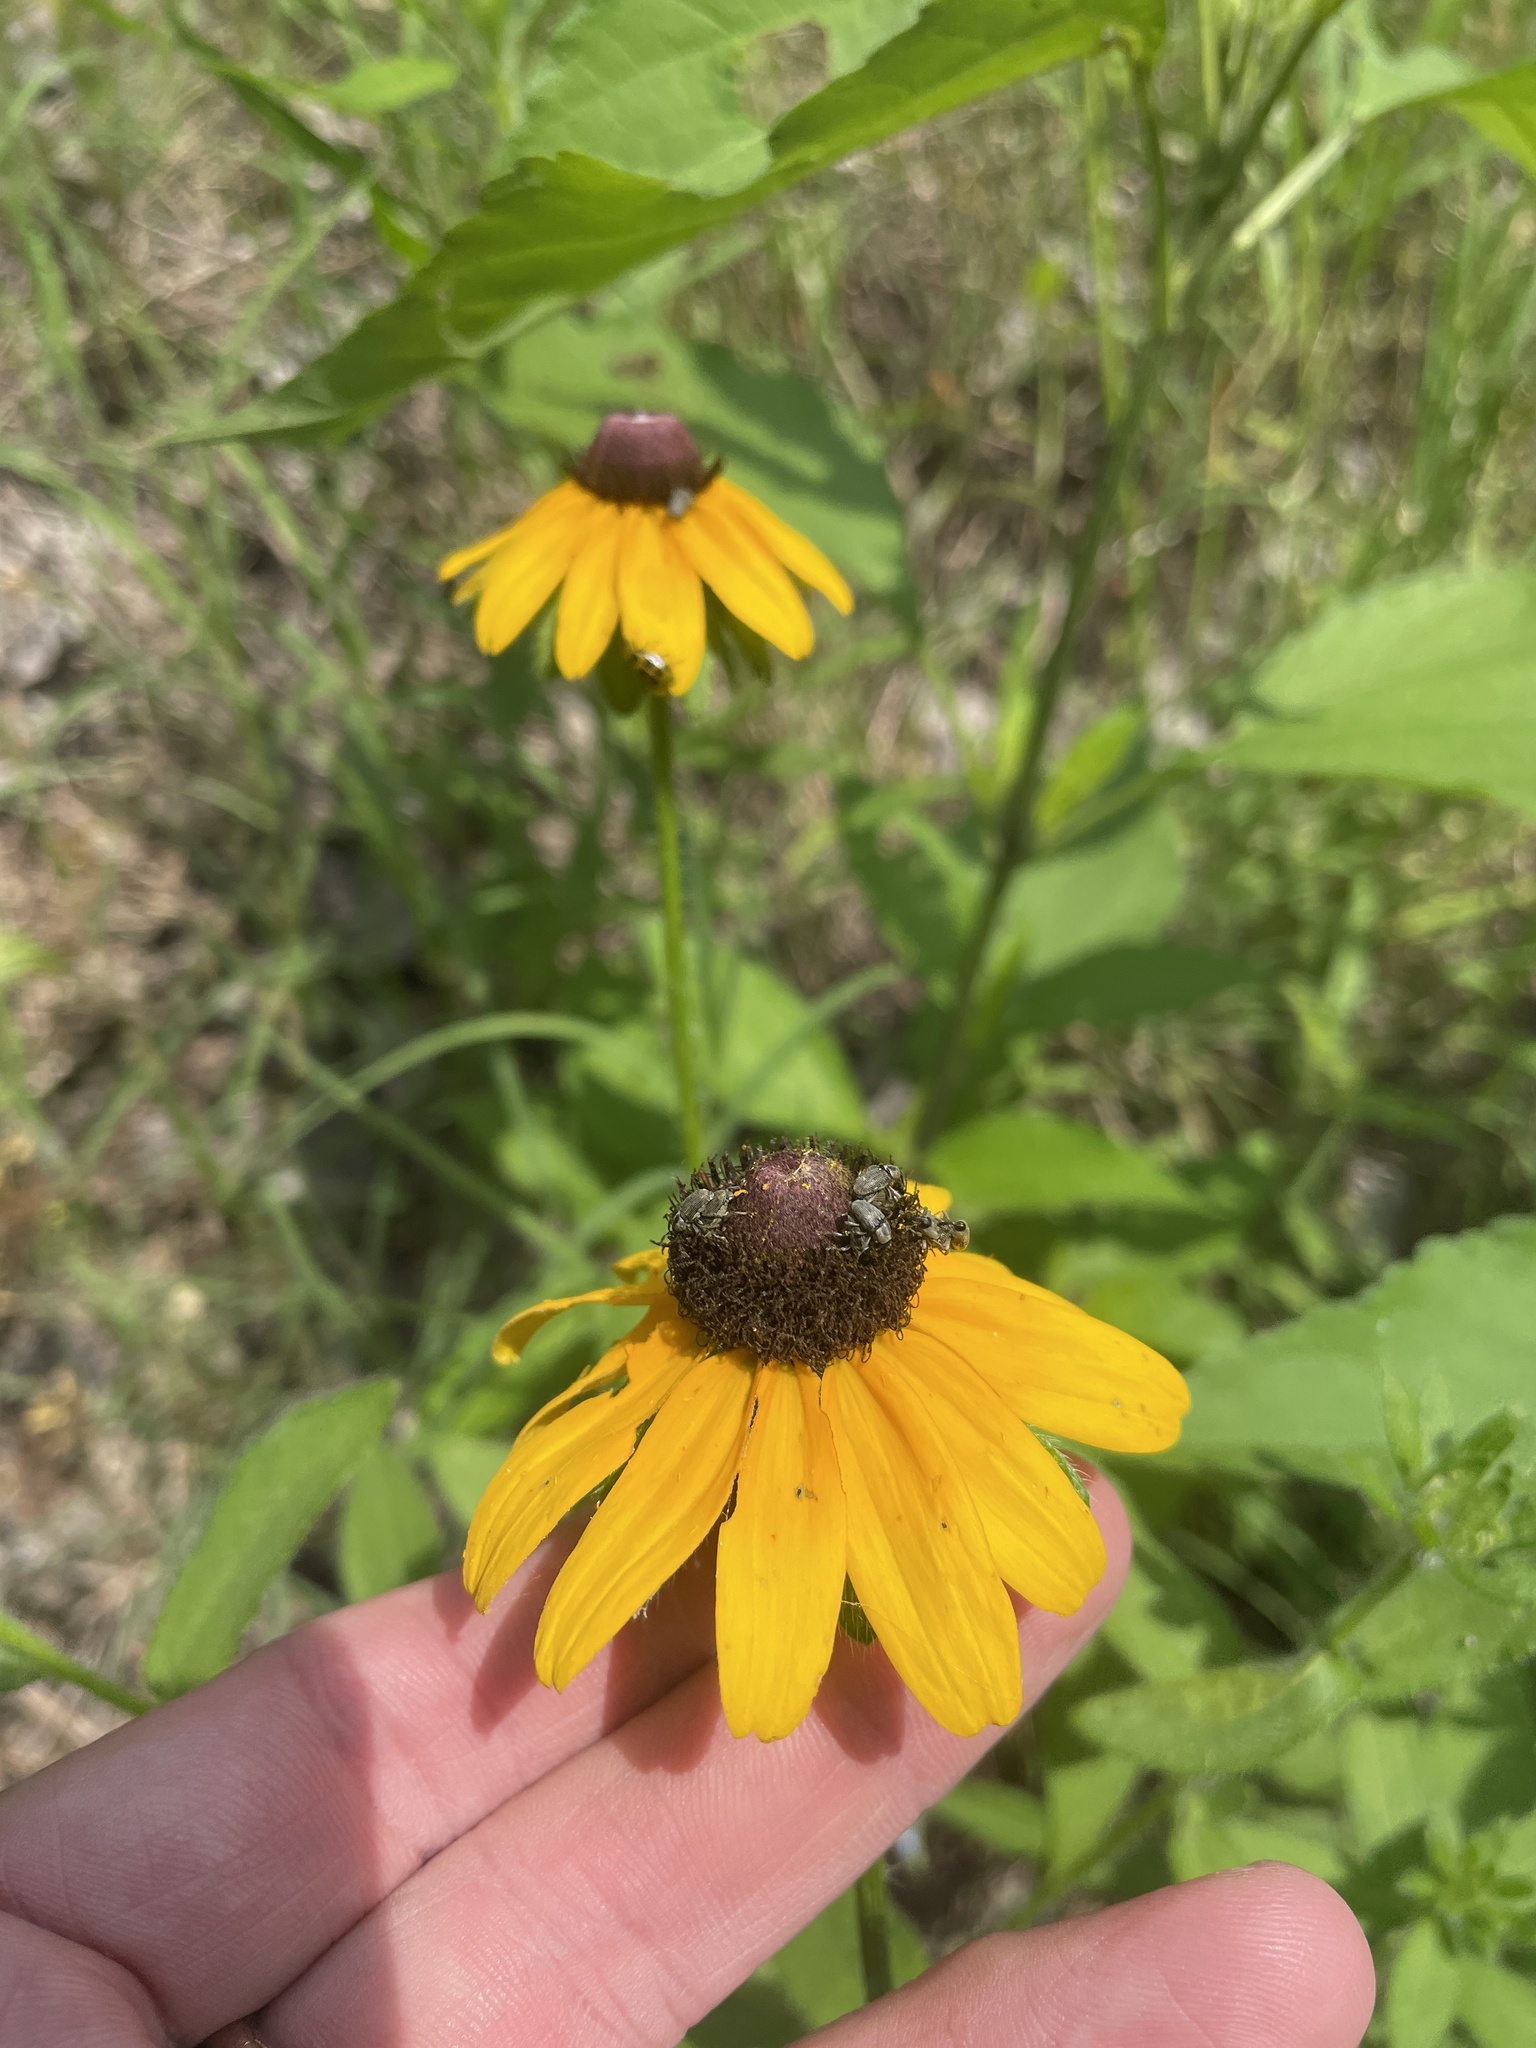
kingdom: Plantae
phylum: Tracheophyta
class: Magnoliopsida
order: Asterales
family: Asteraceae
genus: Rudbeckia
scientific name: Rudbeckia hirta
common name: Black-eyed-susan
